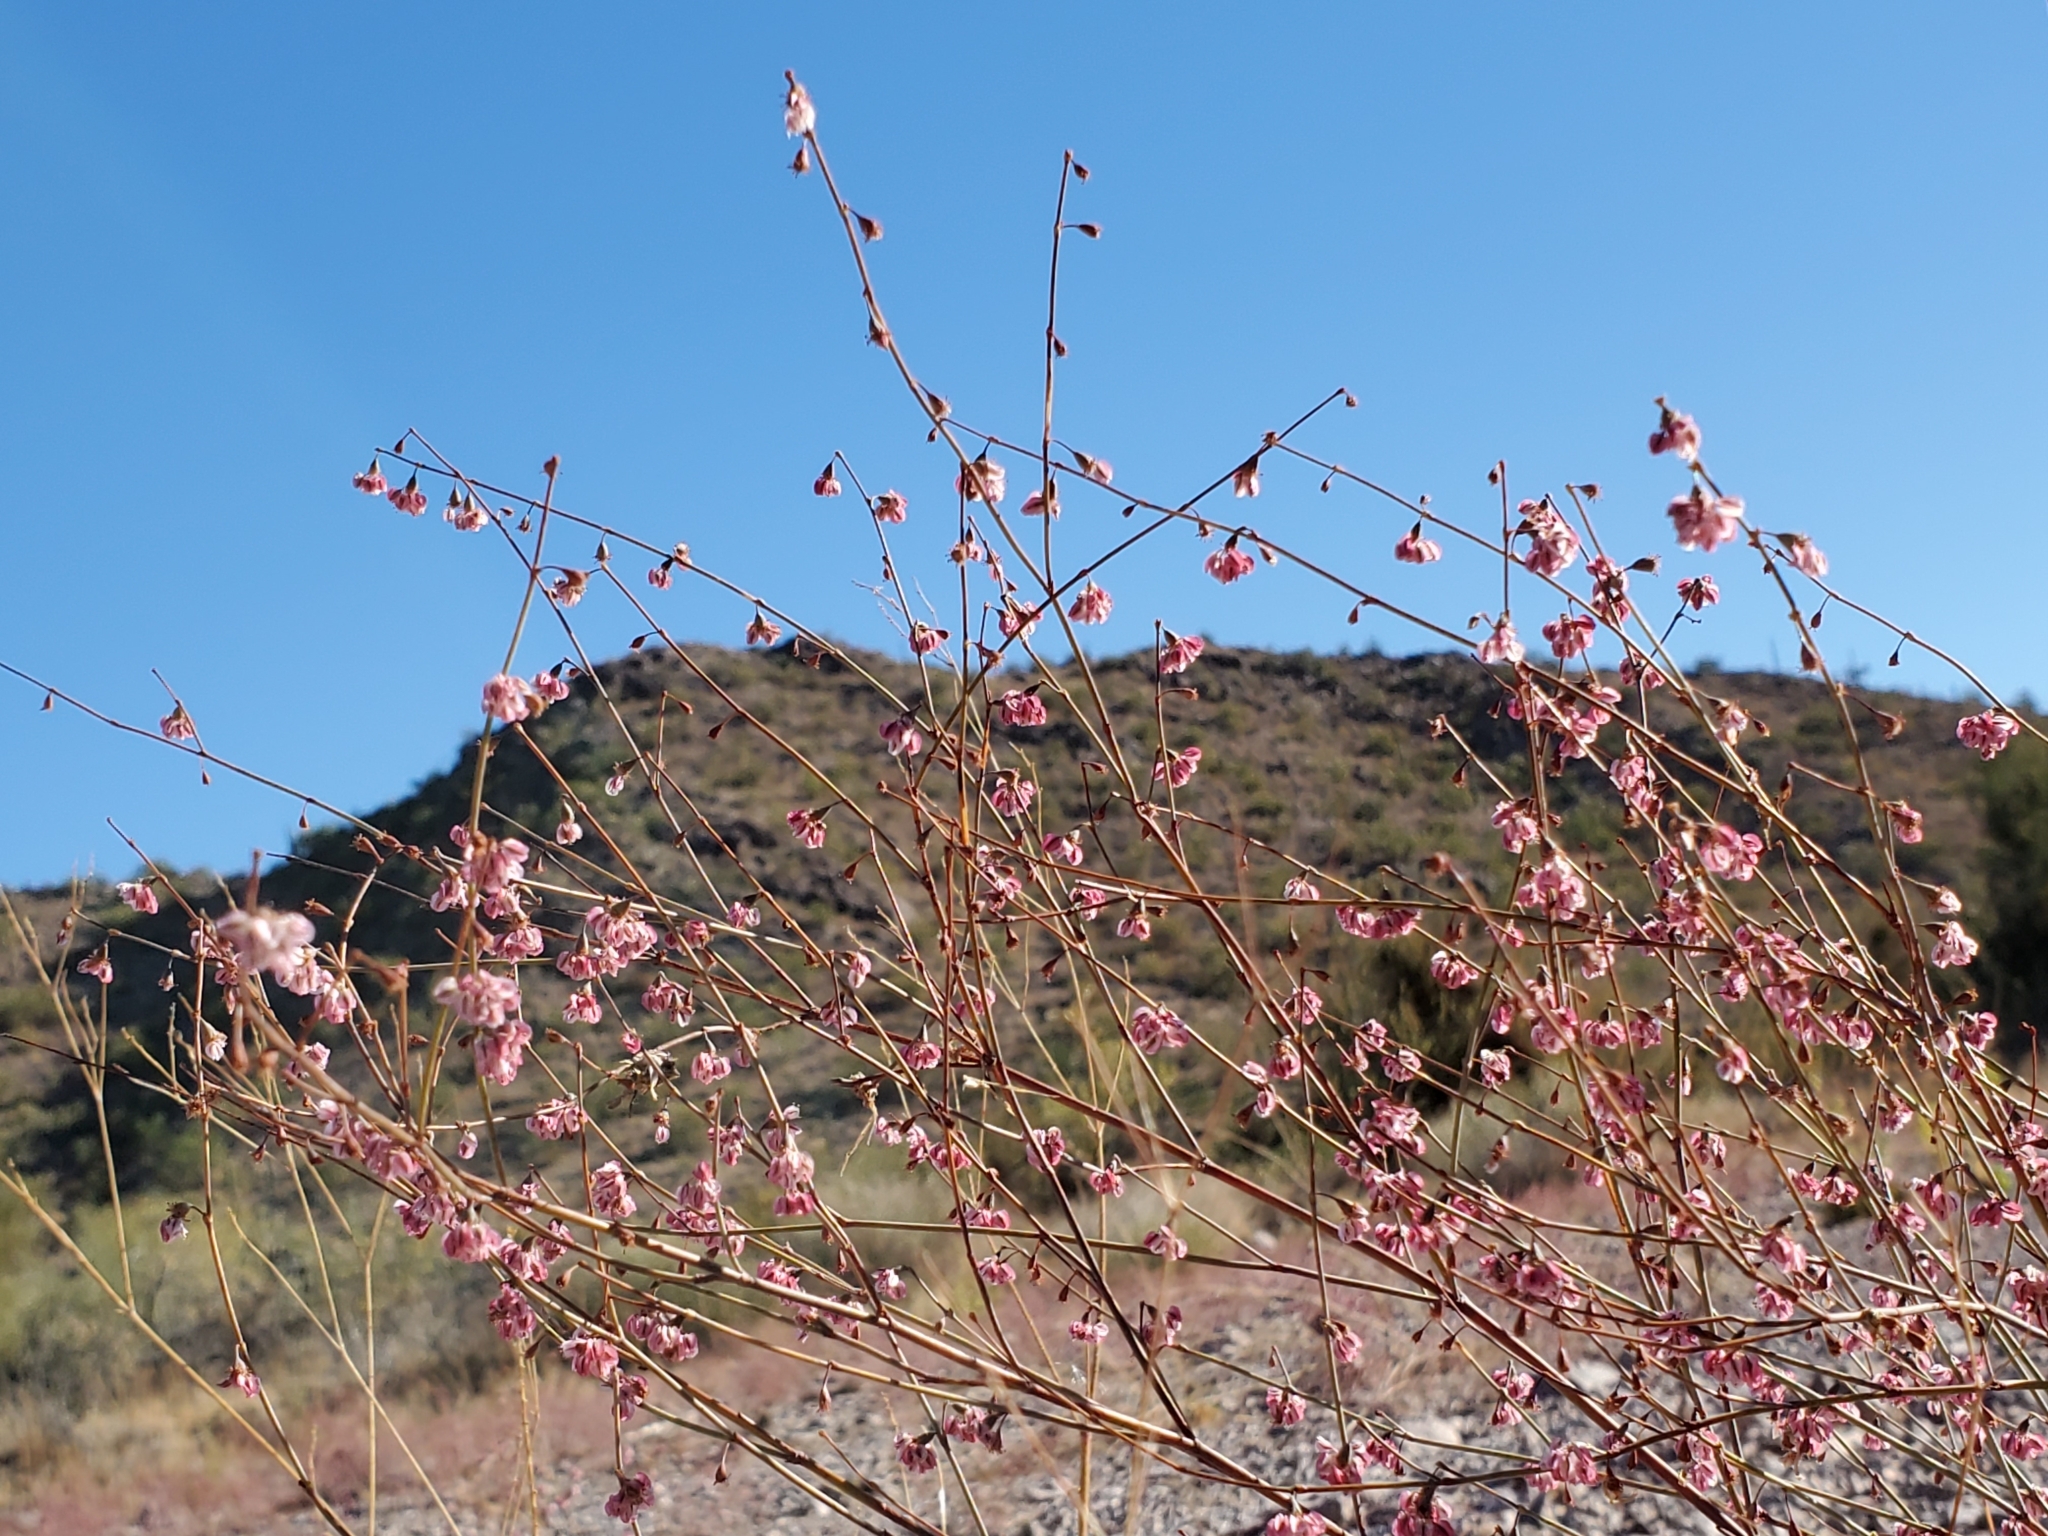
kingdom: Plantae
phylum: Tracheophyta
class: Magnoliopsida
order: Caryophyllales
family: Polygonaceae
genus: Eriogonum
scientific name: Eriogonum deflexum
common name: Skeleton-weed
